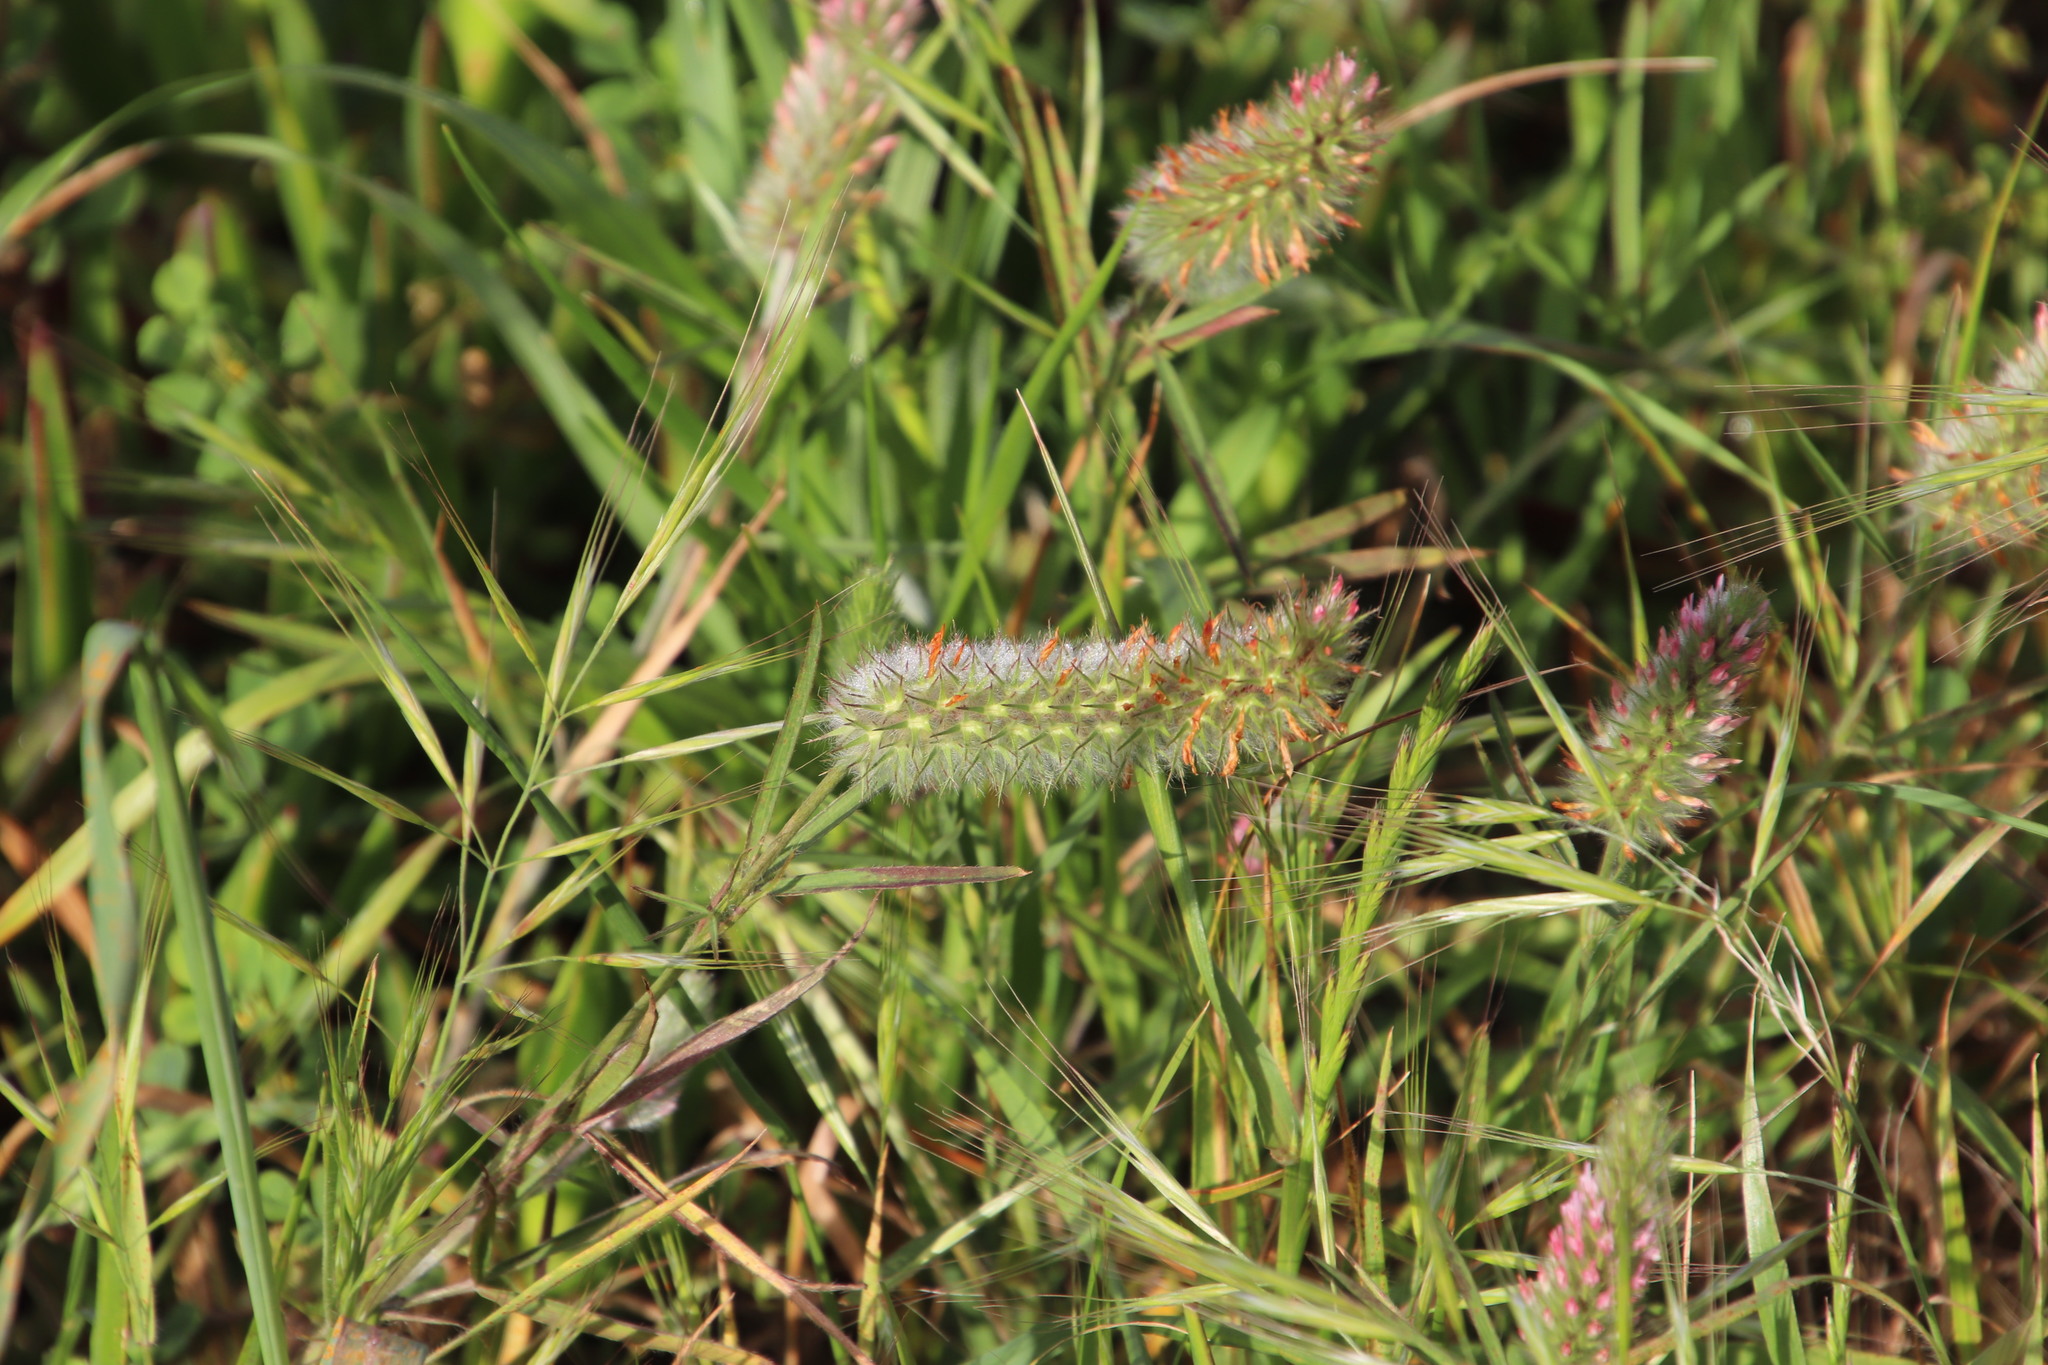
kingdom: Plantae
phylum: Tracheophyta
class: Magnoliopsida
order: Fabales
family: Fabaceae
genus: Trifolium
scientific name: Trifolium angustifolium
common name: Narrow clover
